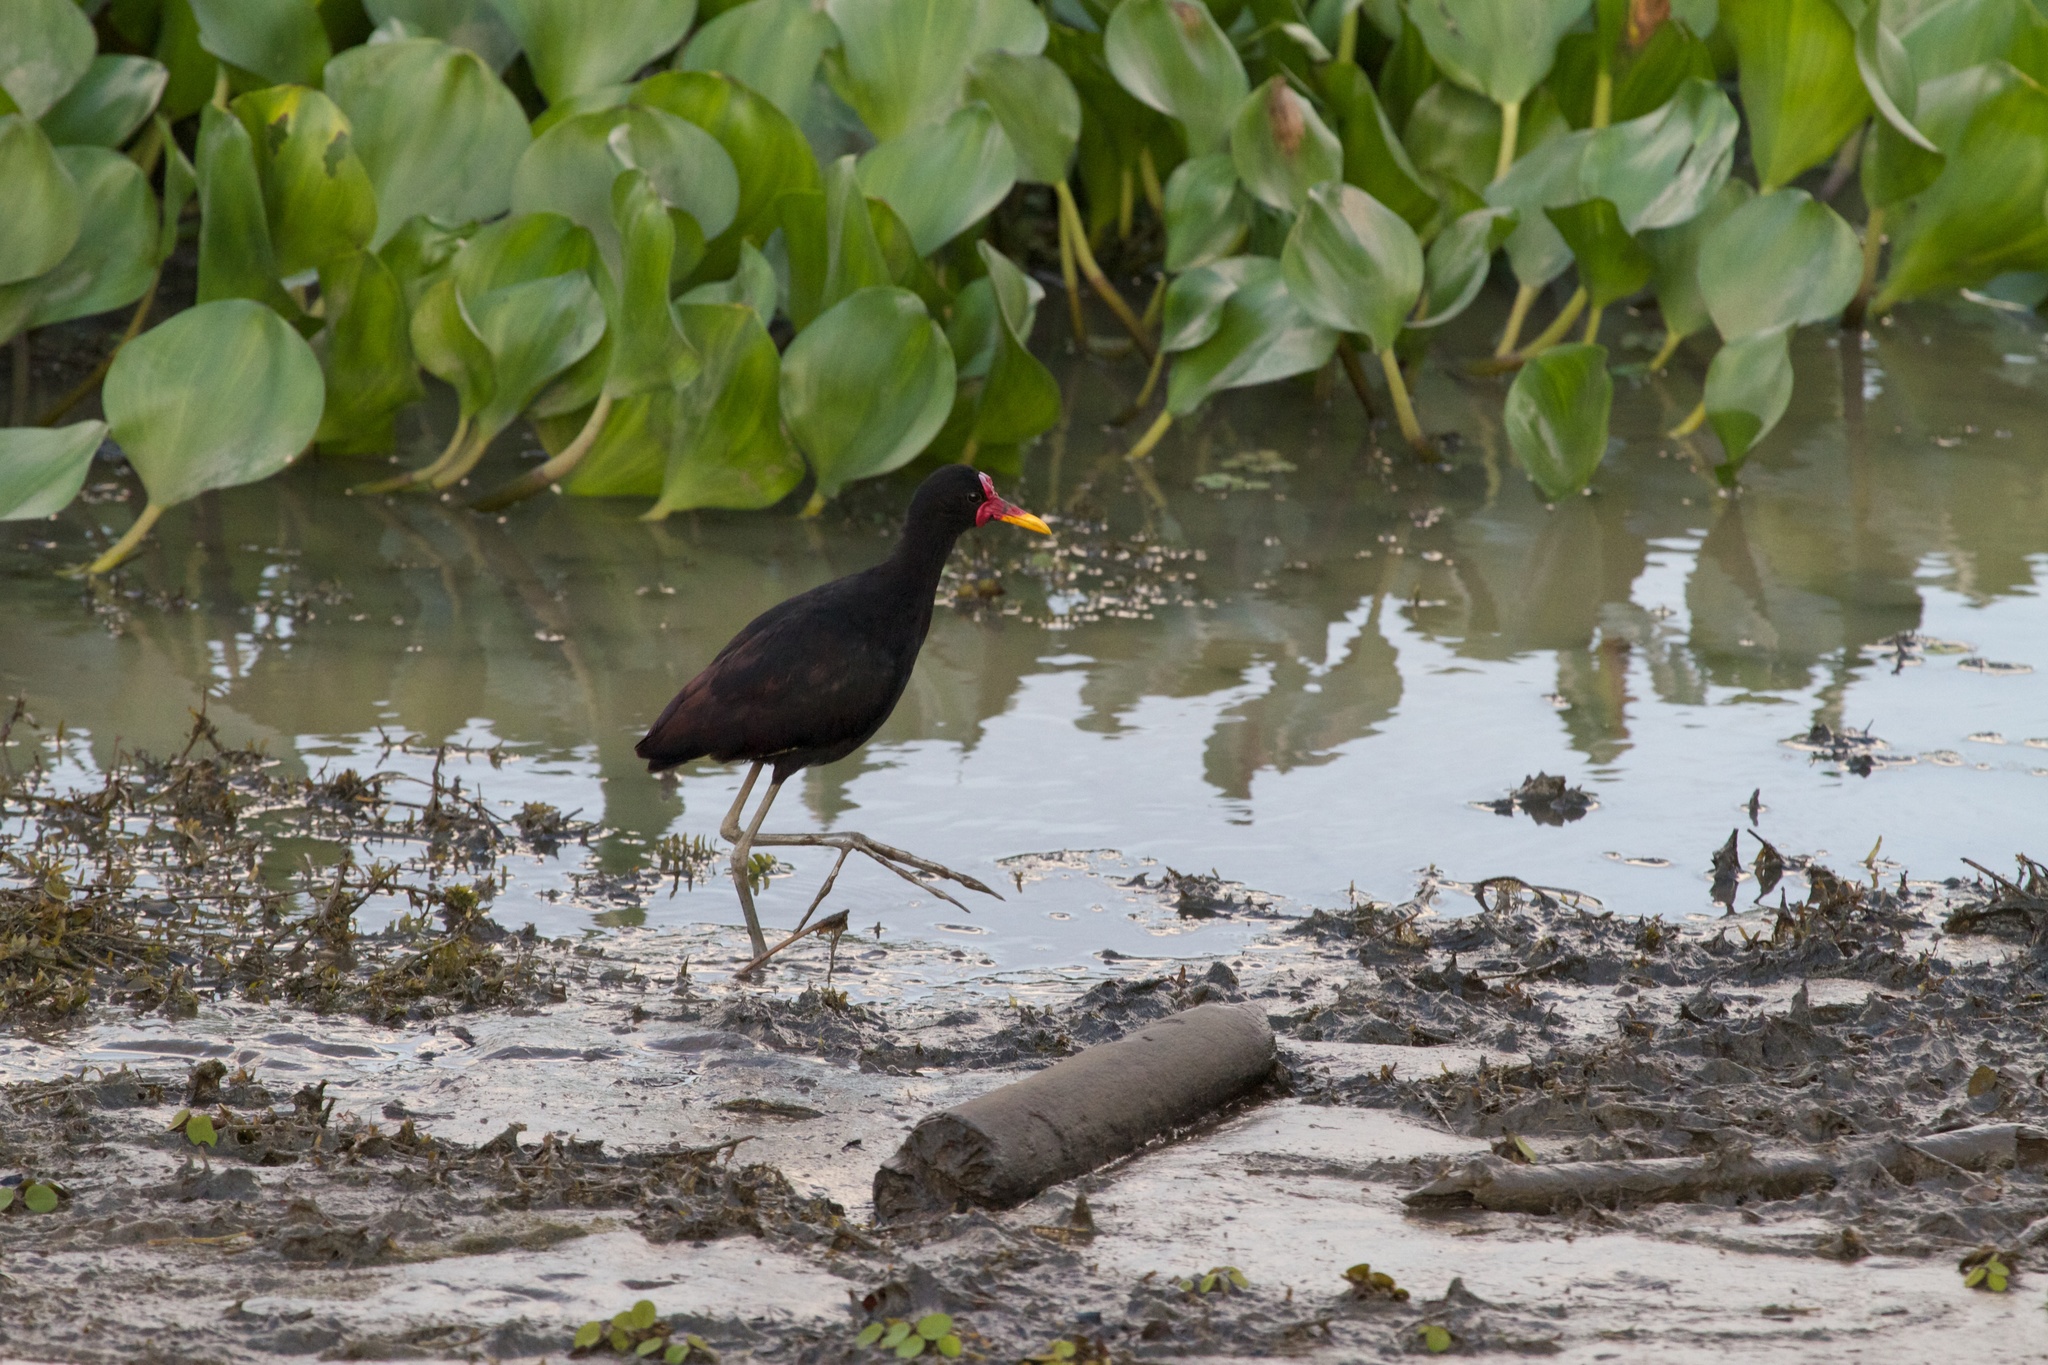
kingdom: Animalia
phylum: Chordata
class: Aves
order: Charadriiformes
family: Jacanidae
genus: Jacana
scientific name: Jacana jacana
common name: Wattled jacana
